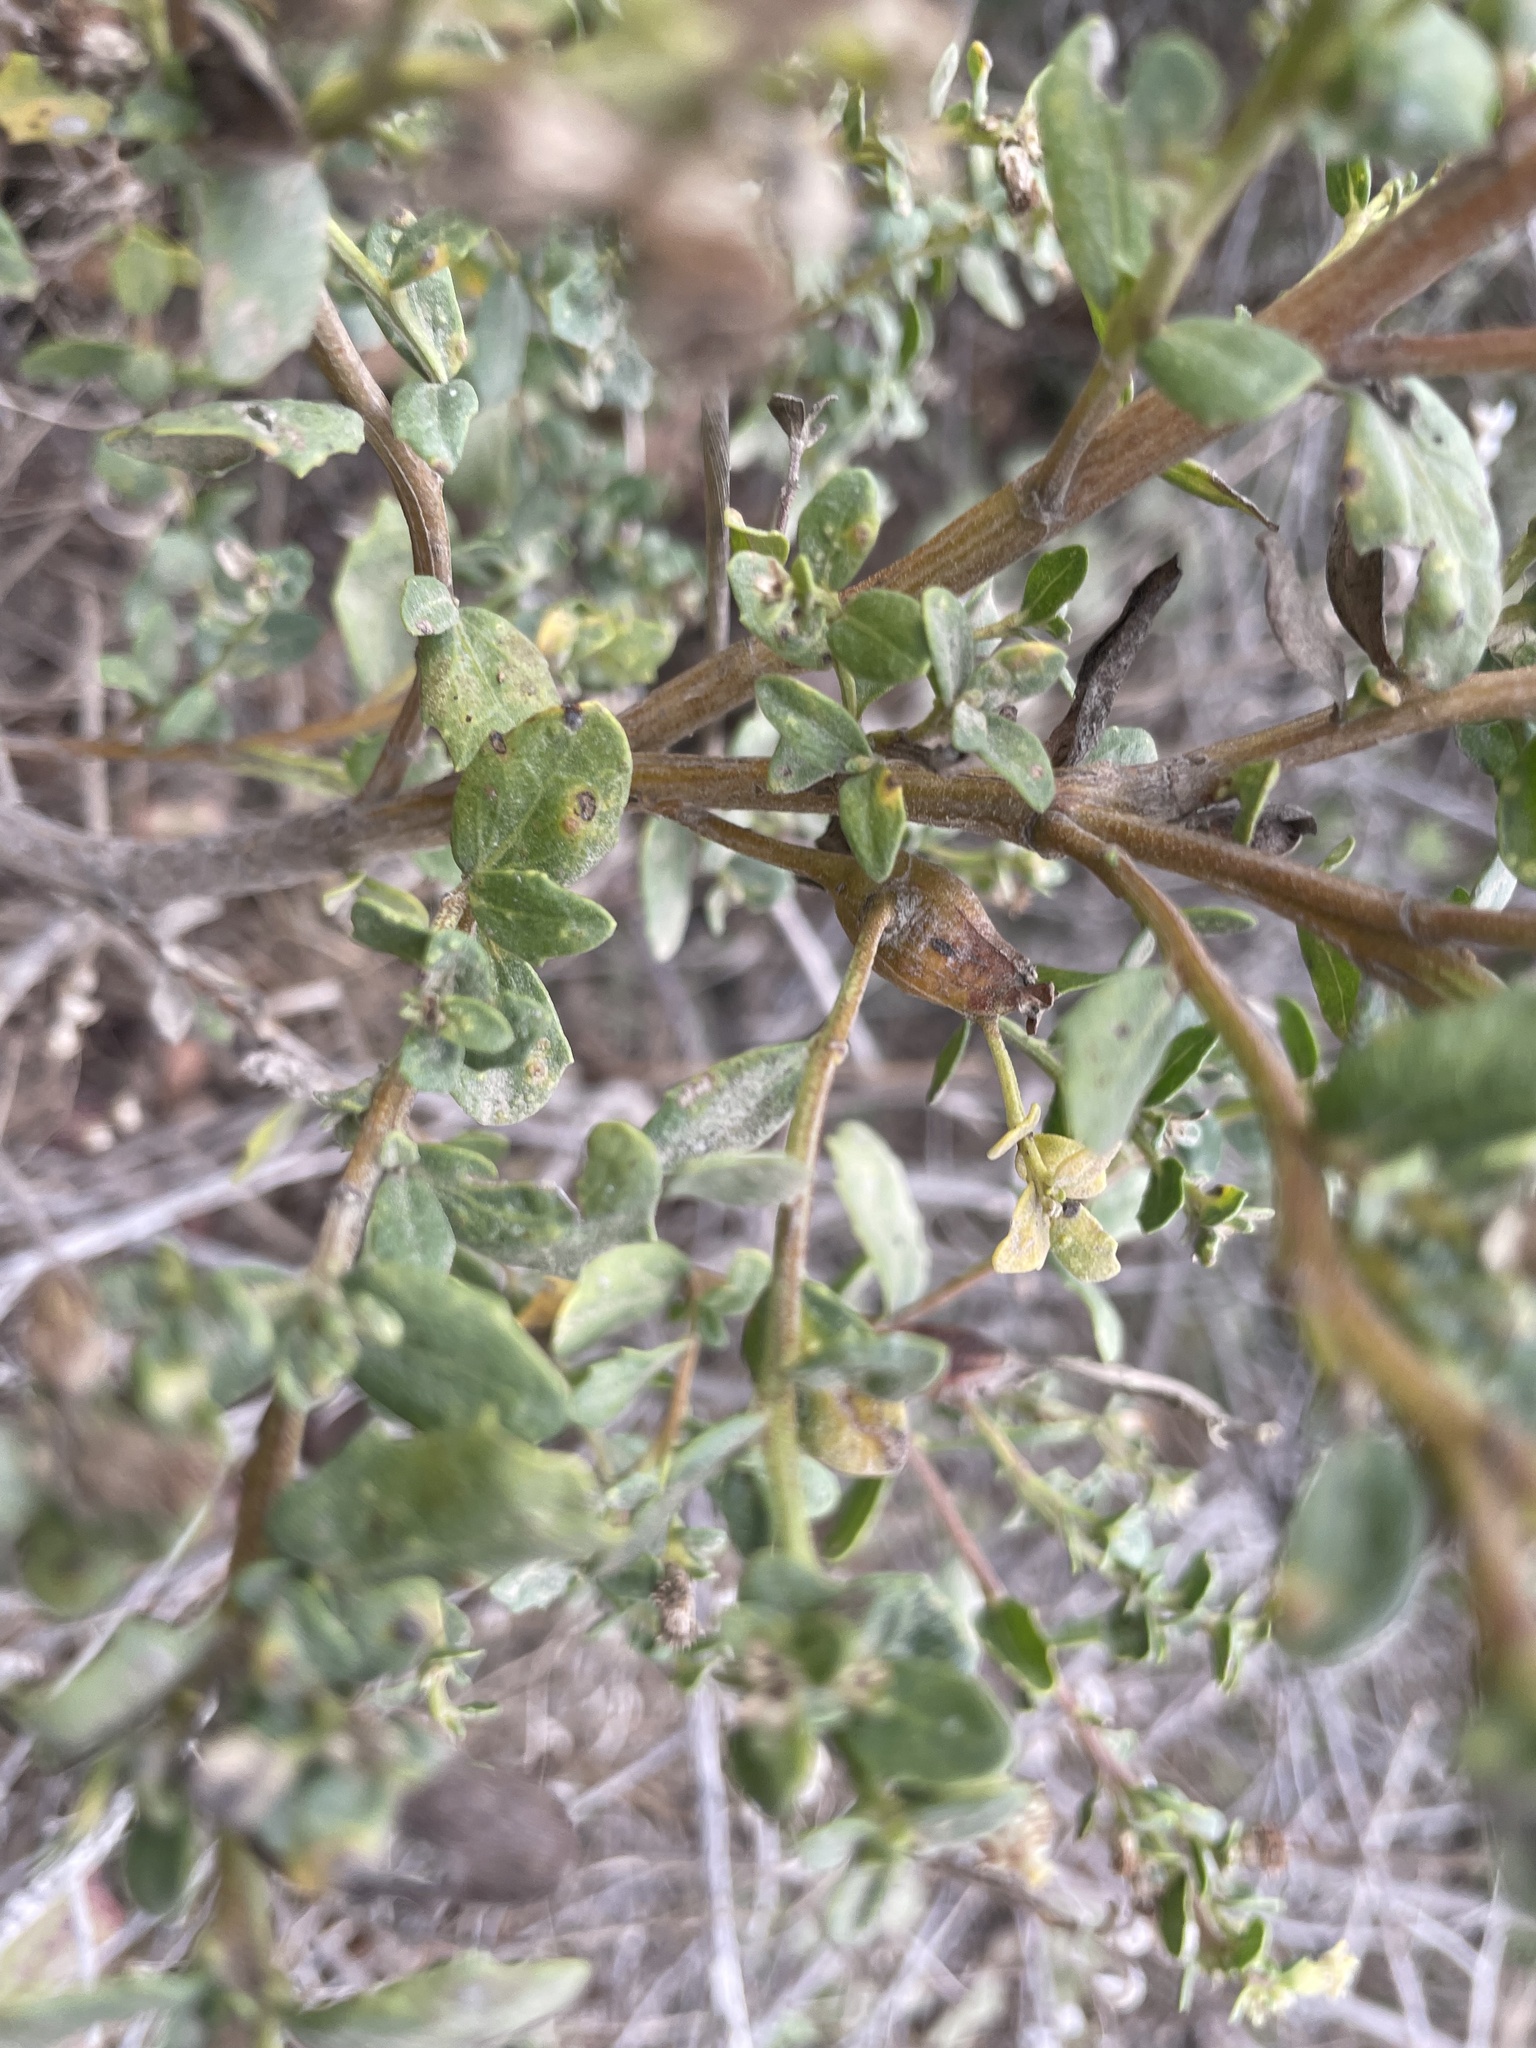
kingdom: Plantae
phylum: Tracheophyta
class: Magnoliopsida
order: Asterales
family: Asteraceae
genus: Baccharis
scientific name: Baccharis pilularis
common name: Coyotebrush
